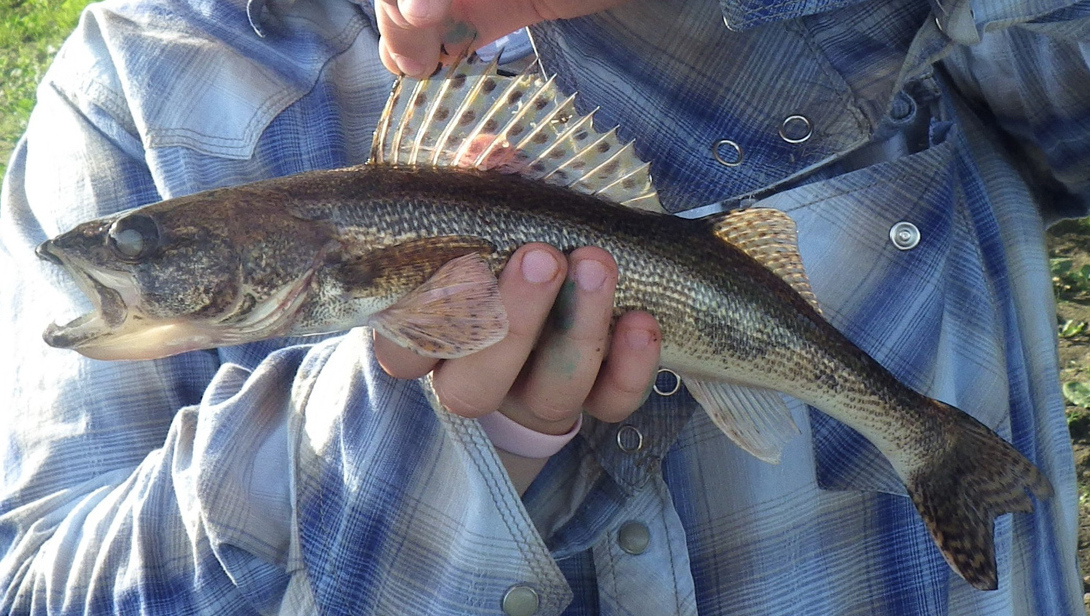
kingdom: Animalia
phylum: Chordata
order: Perciformes
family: Percidae
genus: Sander
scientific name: Sander canadensis
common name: Sauger
